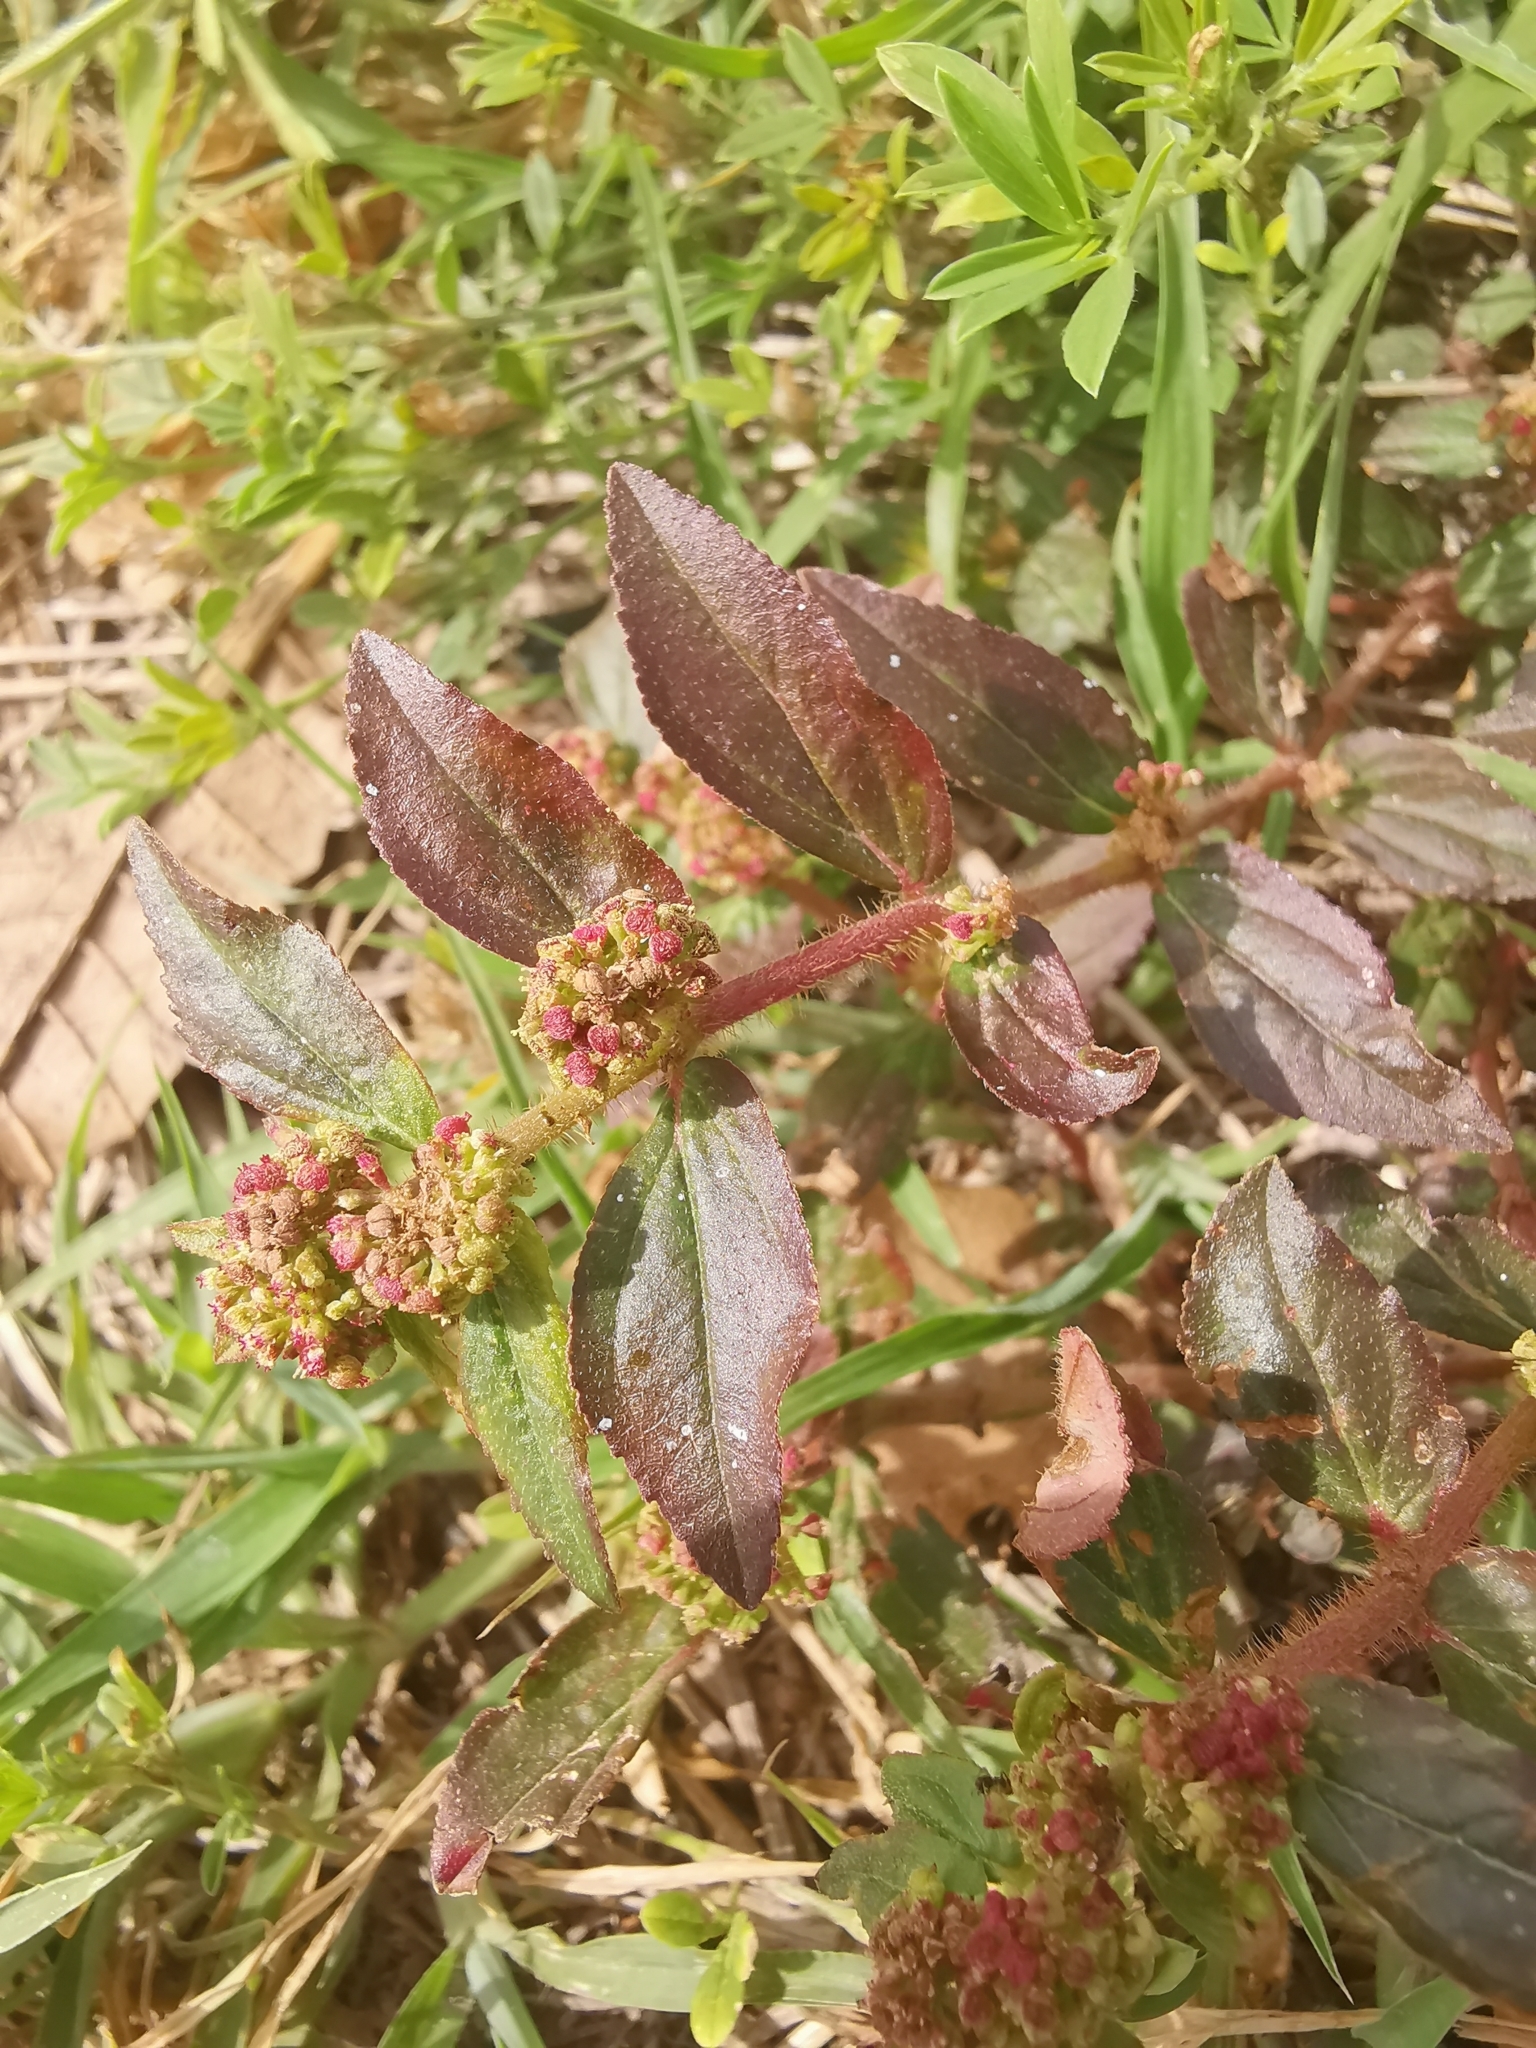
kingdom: Plantae
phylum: Tracheophyta
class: Magnoliopsida
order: Malpighiales
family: Euphorbiaceae
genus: Euphorbia
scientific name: Euphorbia hirta
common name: Pillpod sandmat
